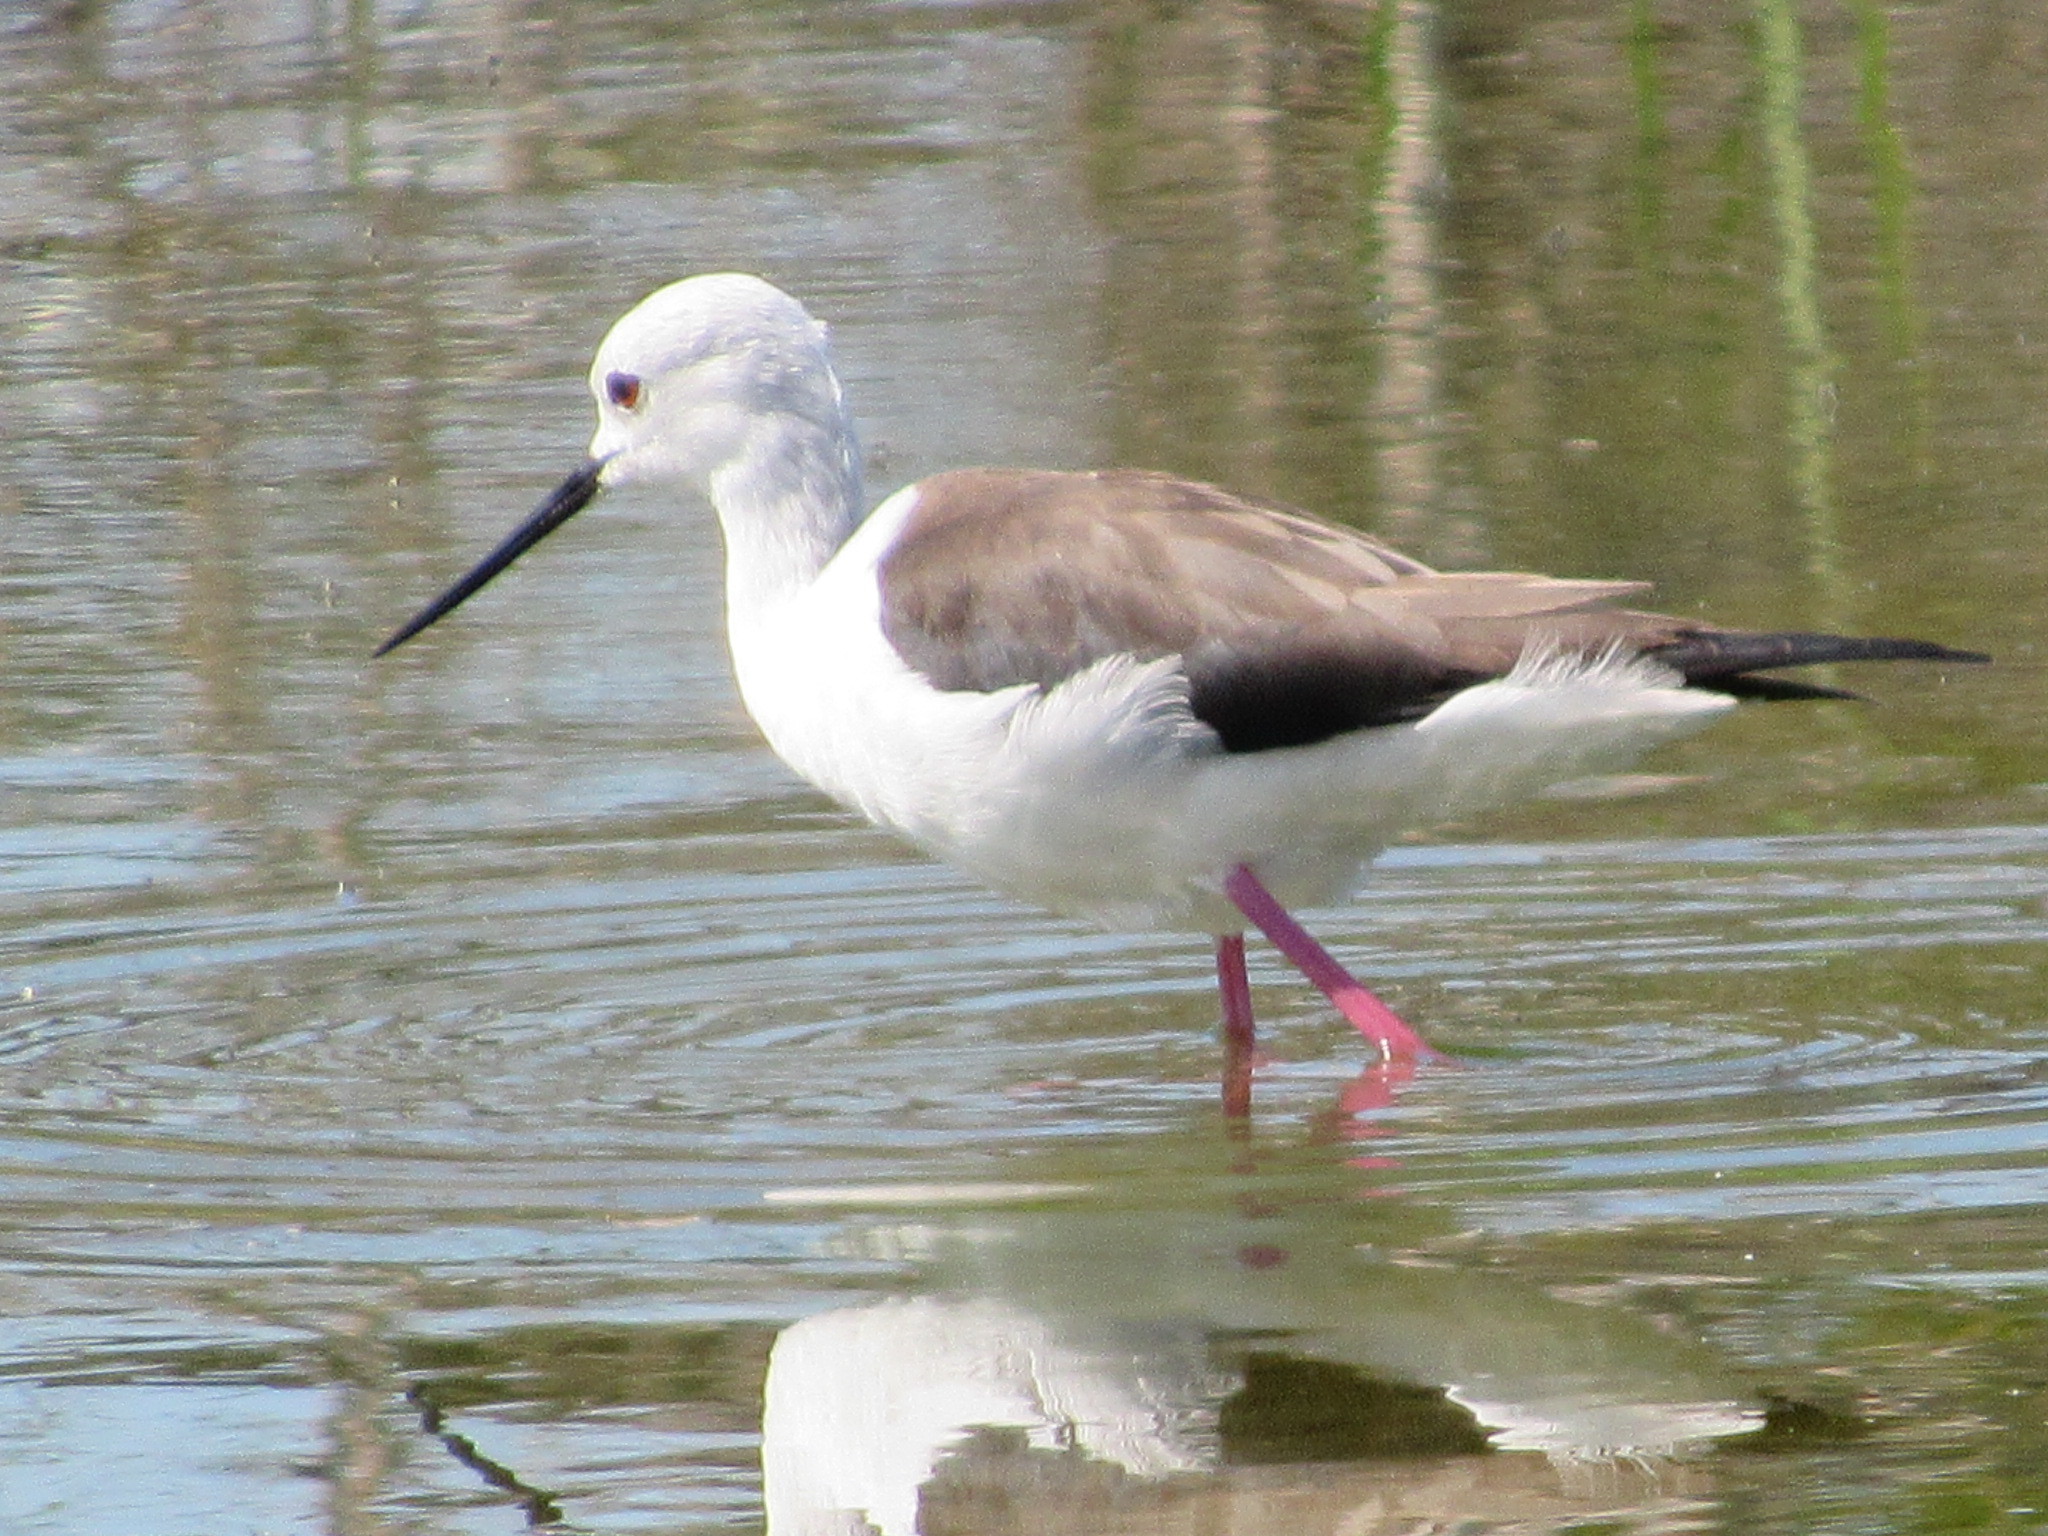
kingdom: Animalia
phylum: Chordata
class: Aves
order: Charadriiformes
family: Recurvirostridae
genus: Himantopus
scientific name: Himantopus himantopus
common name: Black-winged stilt
